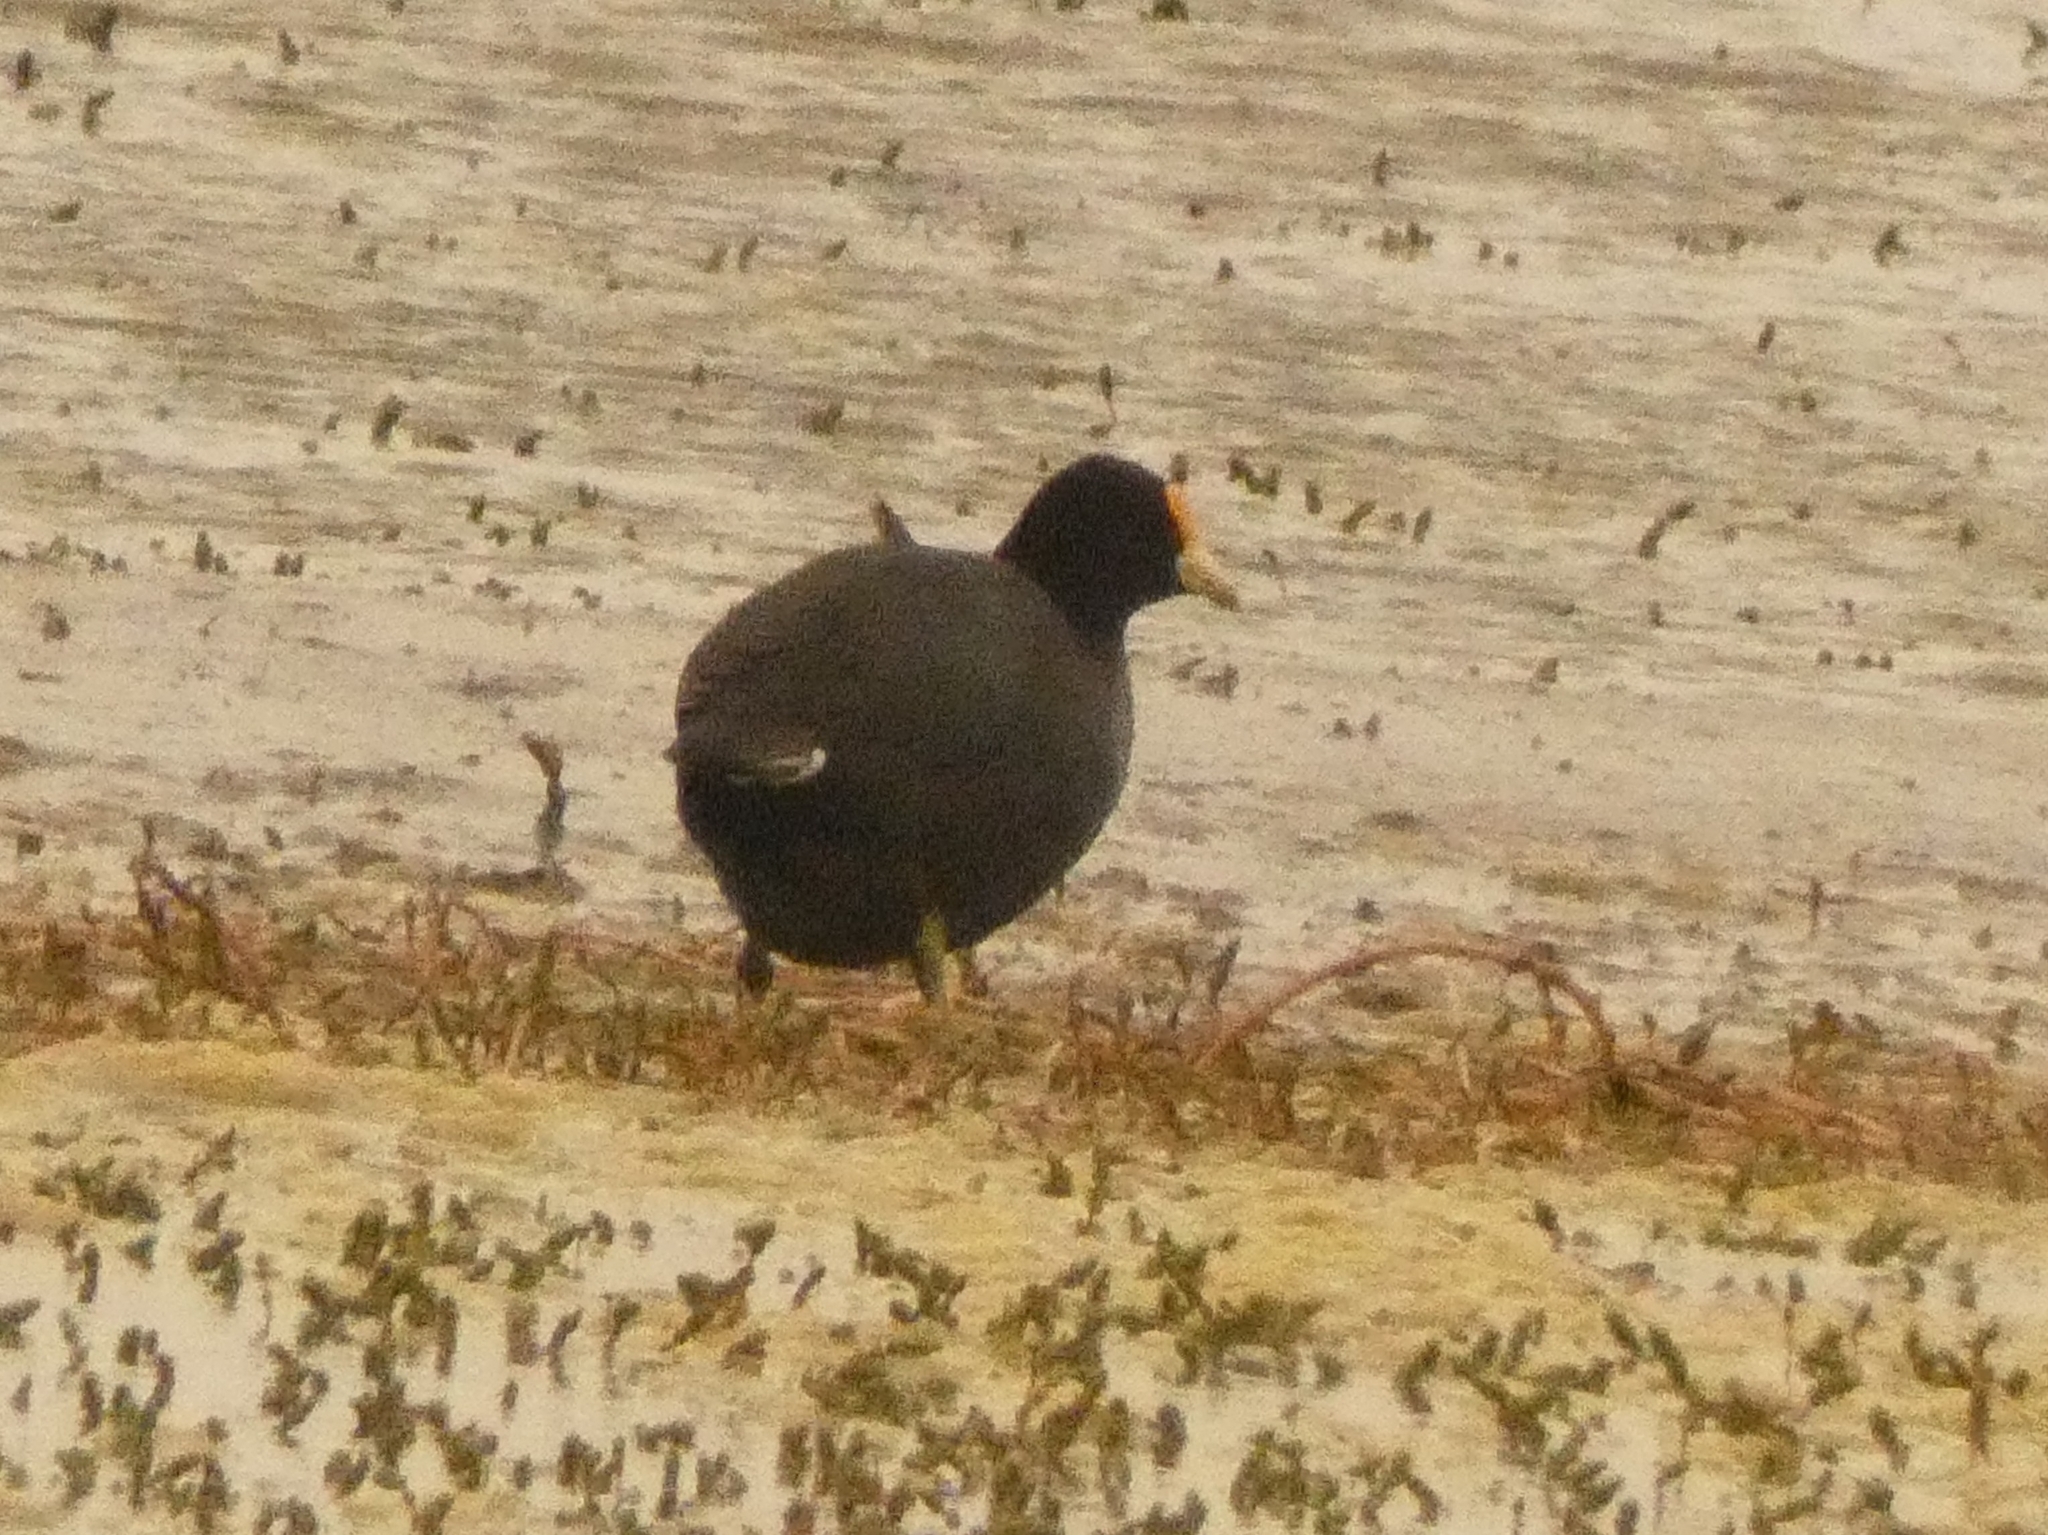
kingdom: Animalia
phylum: Chordata
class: Aves
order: Gruiformes
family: Rallidae
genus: Fulica
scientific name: Fulica leucoptera
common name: White-winged coot
